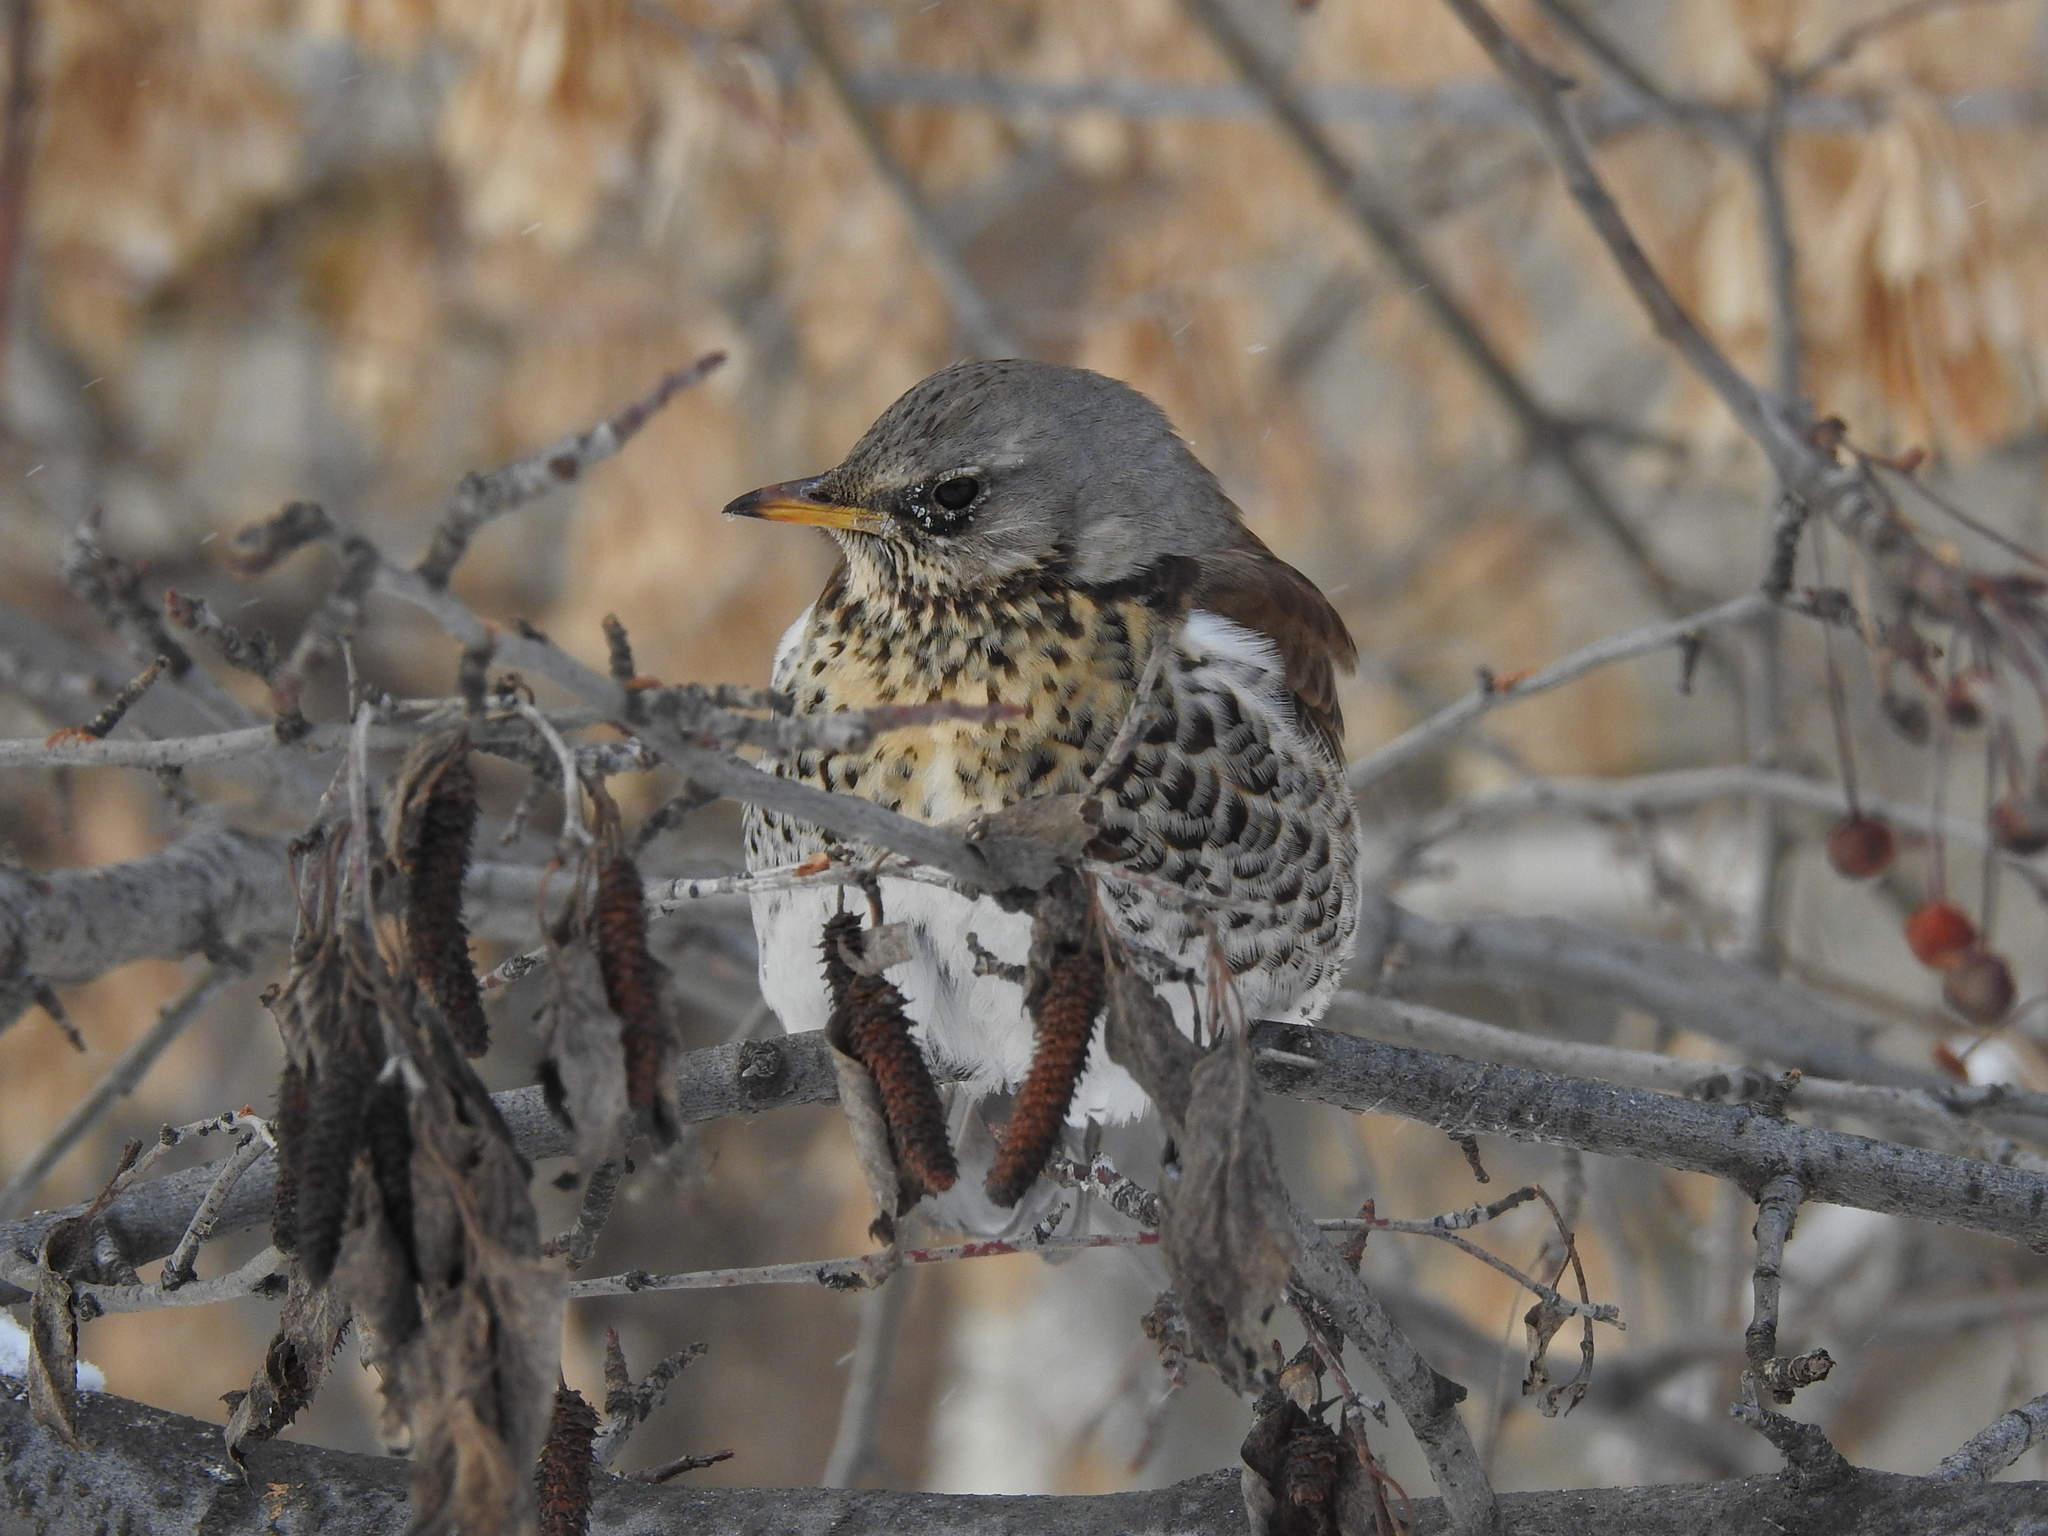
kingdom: Animalia
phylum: Chordata
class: Aves
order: Passeriformes
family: Turdidae
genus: Turdus
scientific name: Turdus pilaris
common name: Fieldfare
